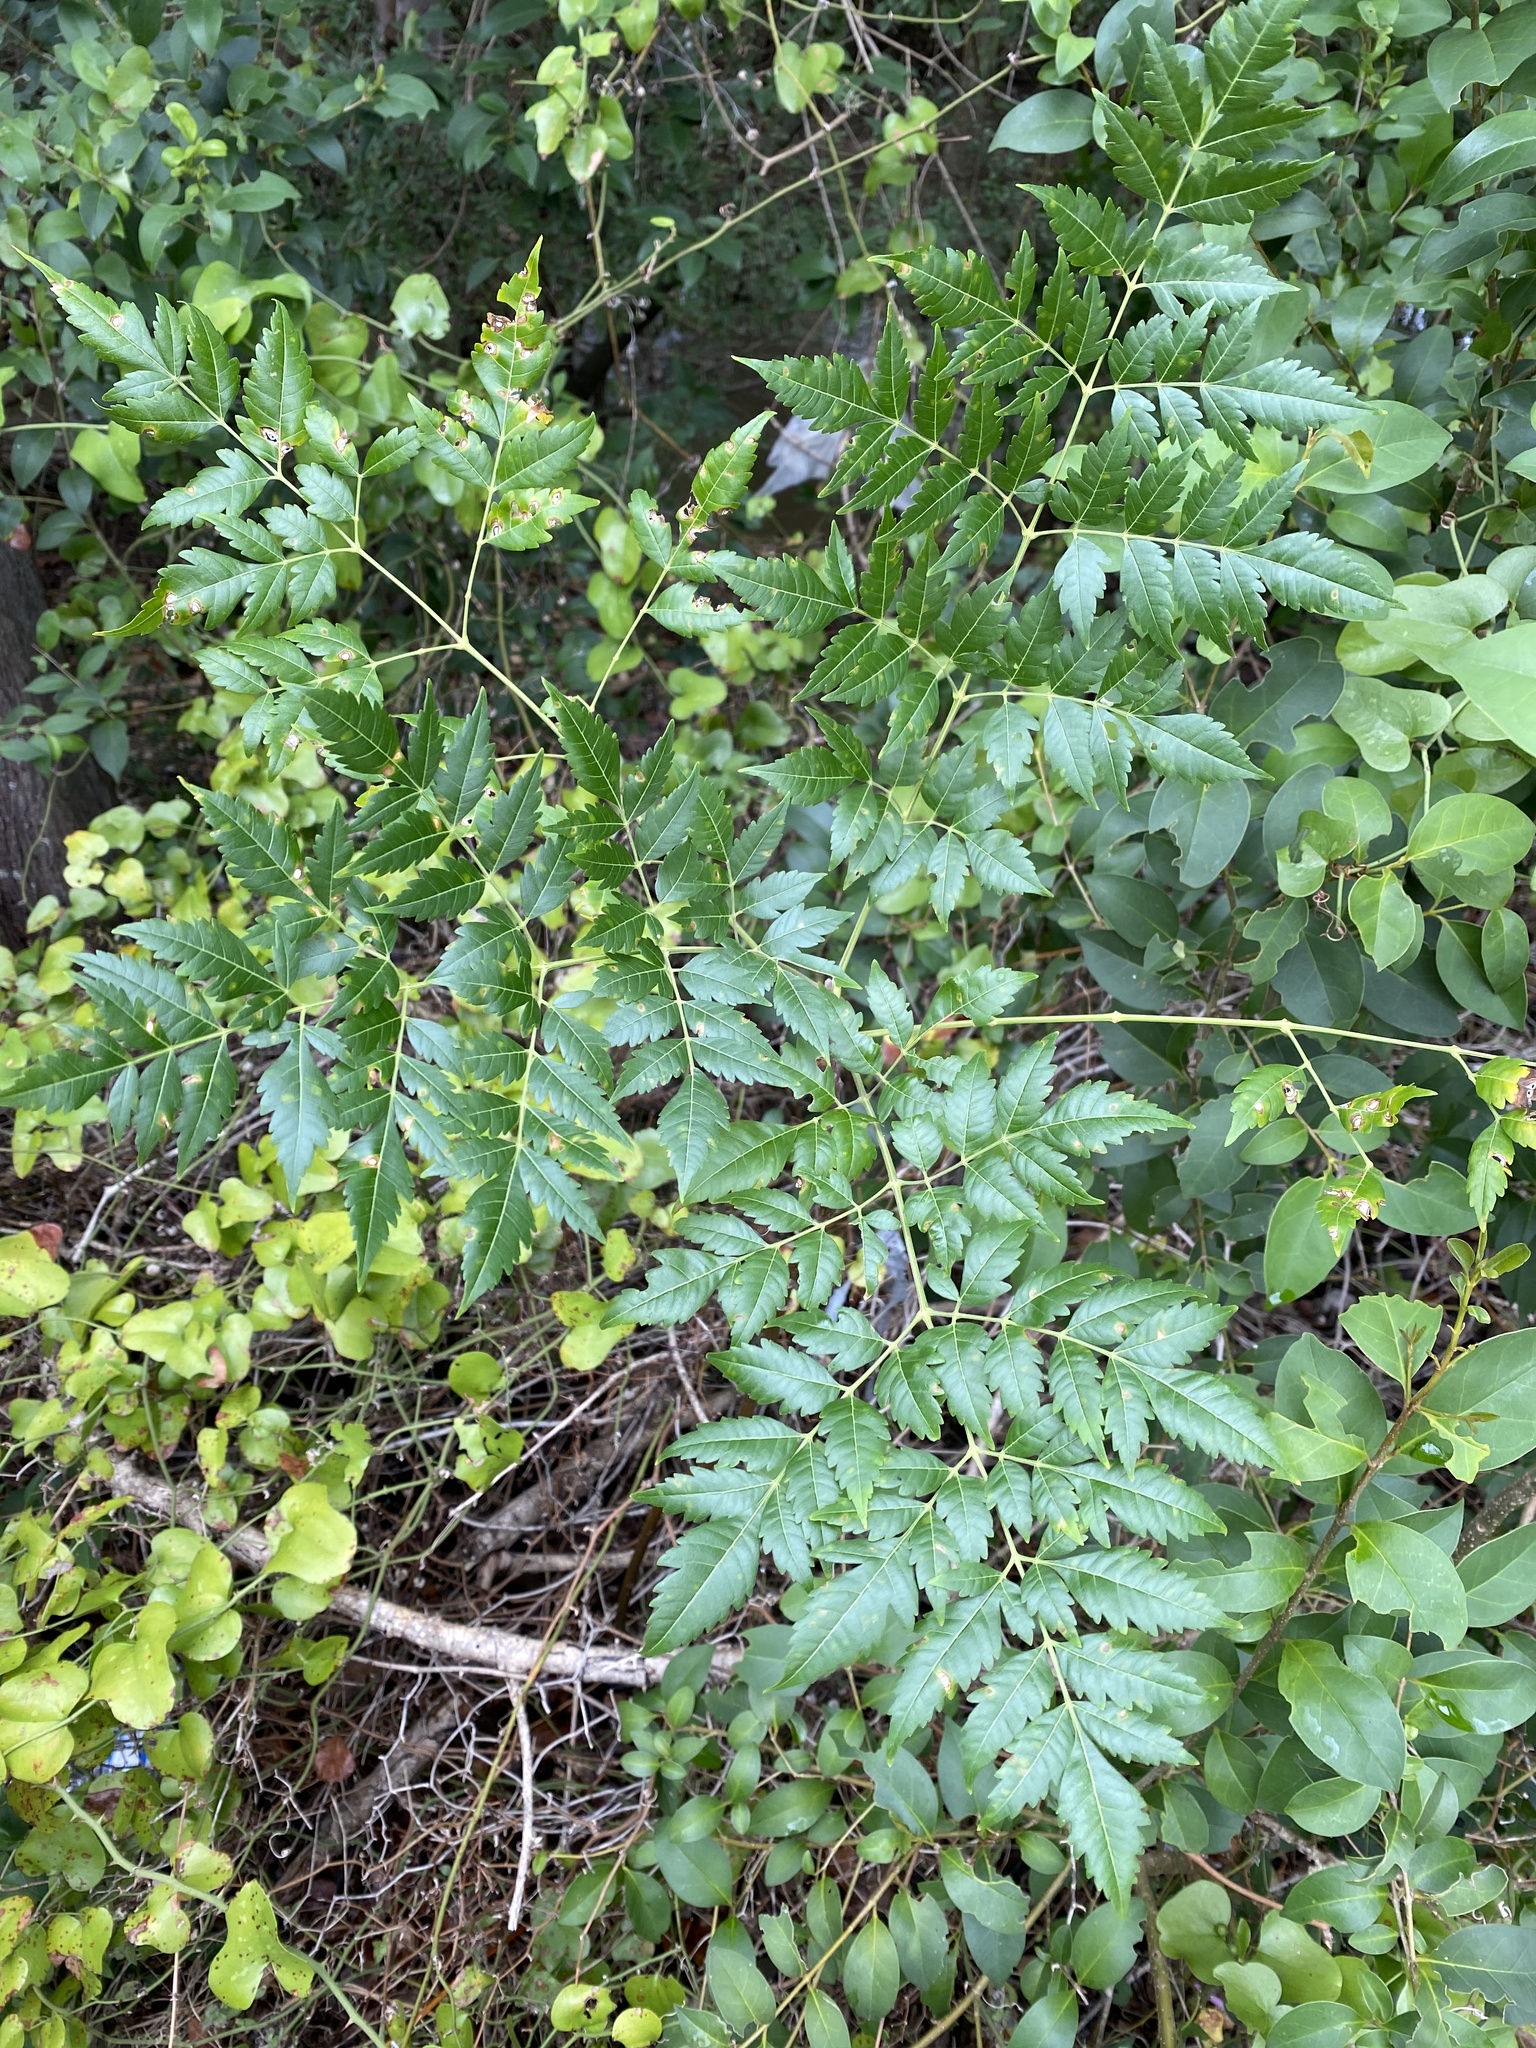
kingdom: Plantae
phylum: Tracheophyta
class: Magnoliopsida
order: Sapindales
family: Meliaceae
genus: Melia
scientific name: Melia azedarach
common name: Chinaberrytree
